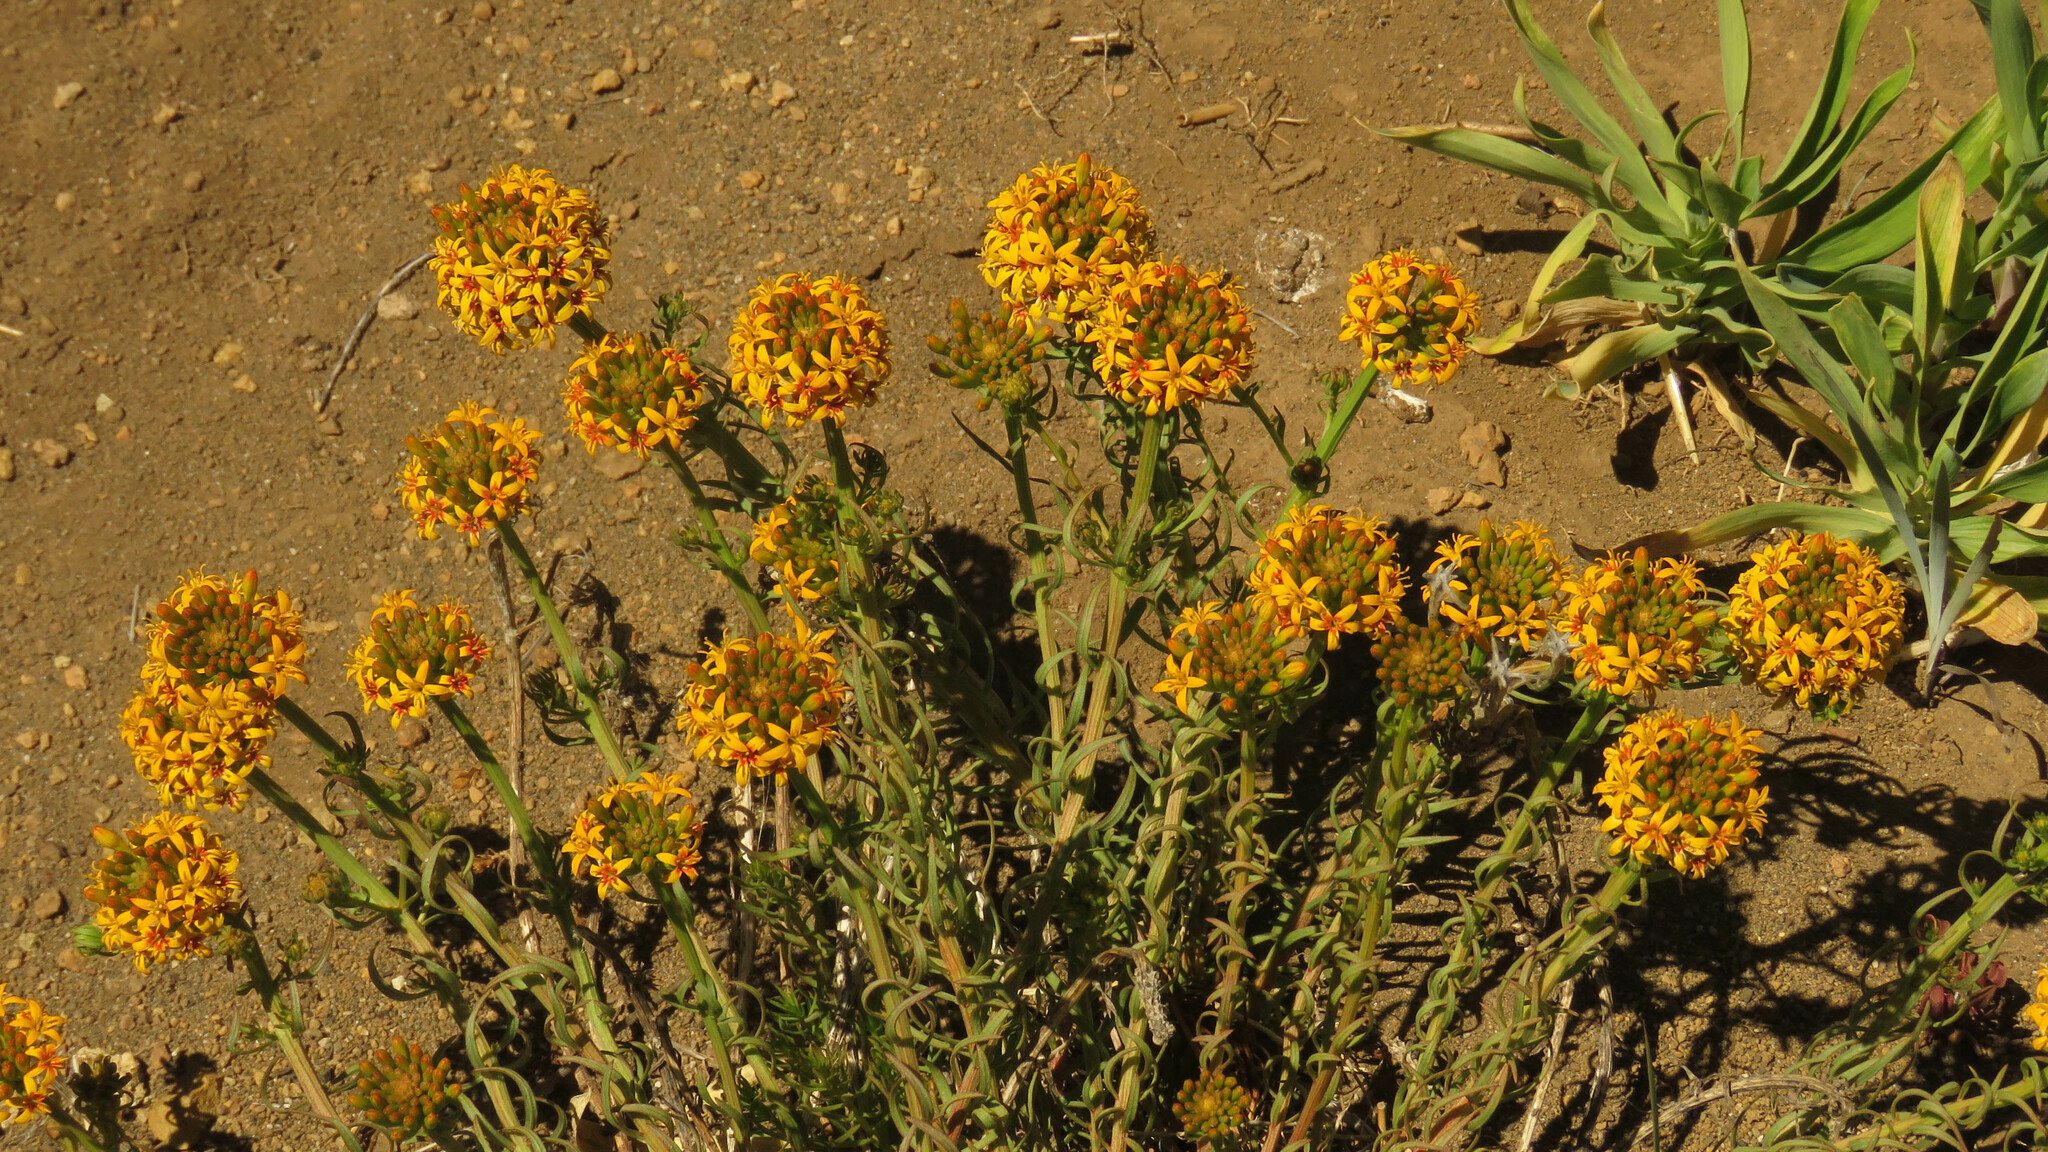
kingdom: Plantae
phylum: Tracheophyta
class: Magnoliopsida
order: Santalales
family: Schoepfiaceae
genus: Quinchamalium
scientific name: Quinchamalium chilense
